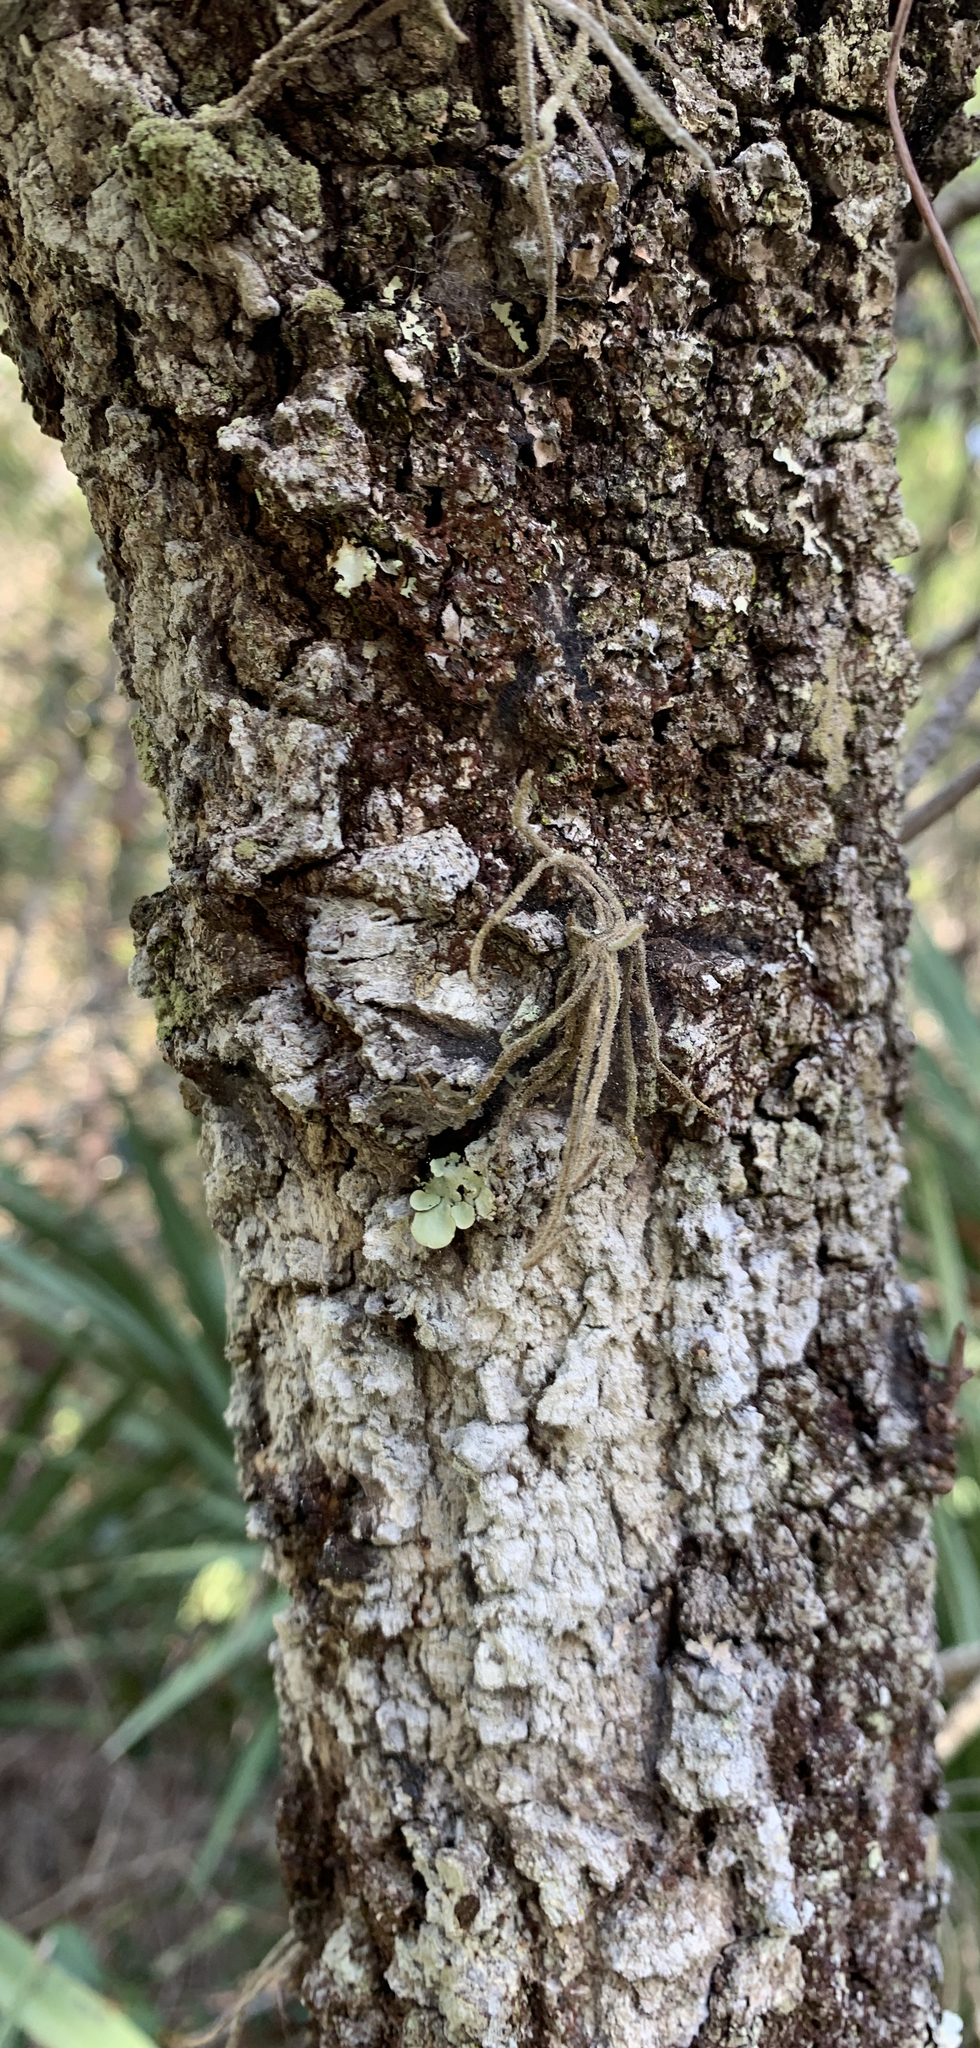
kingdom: Plantae
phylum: Tracheophyta
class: Magnoliopsida
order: Fagales
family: Fagaceae
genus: Quercus
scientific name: Quercus laevis
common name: Turkey oak
